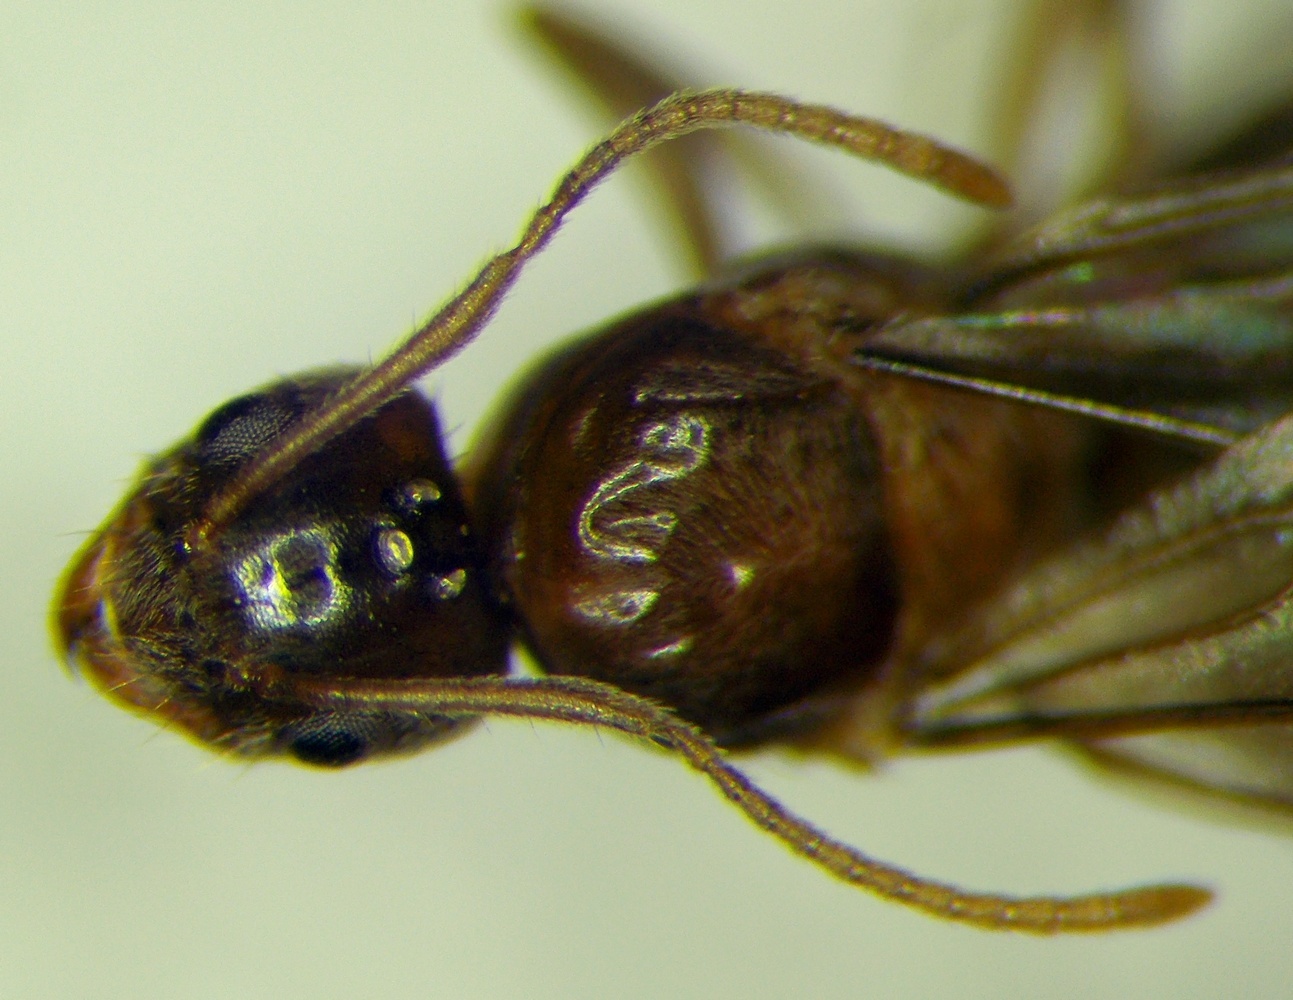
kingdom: Animalia
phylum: Arthropoda
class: Insecta
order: Hymenoptera
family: Formicidae
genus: Paratrechina
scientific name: Paratrechina jaegerskioeldi
